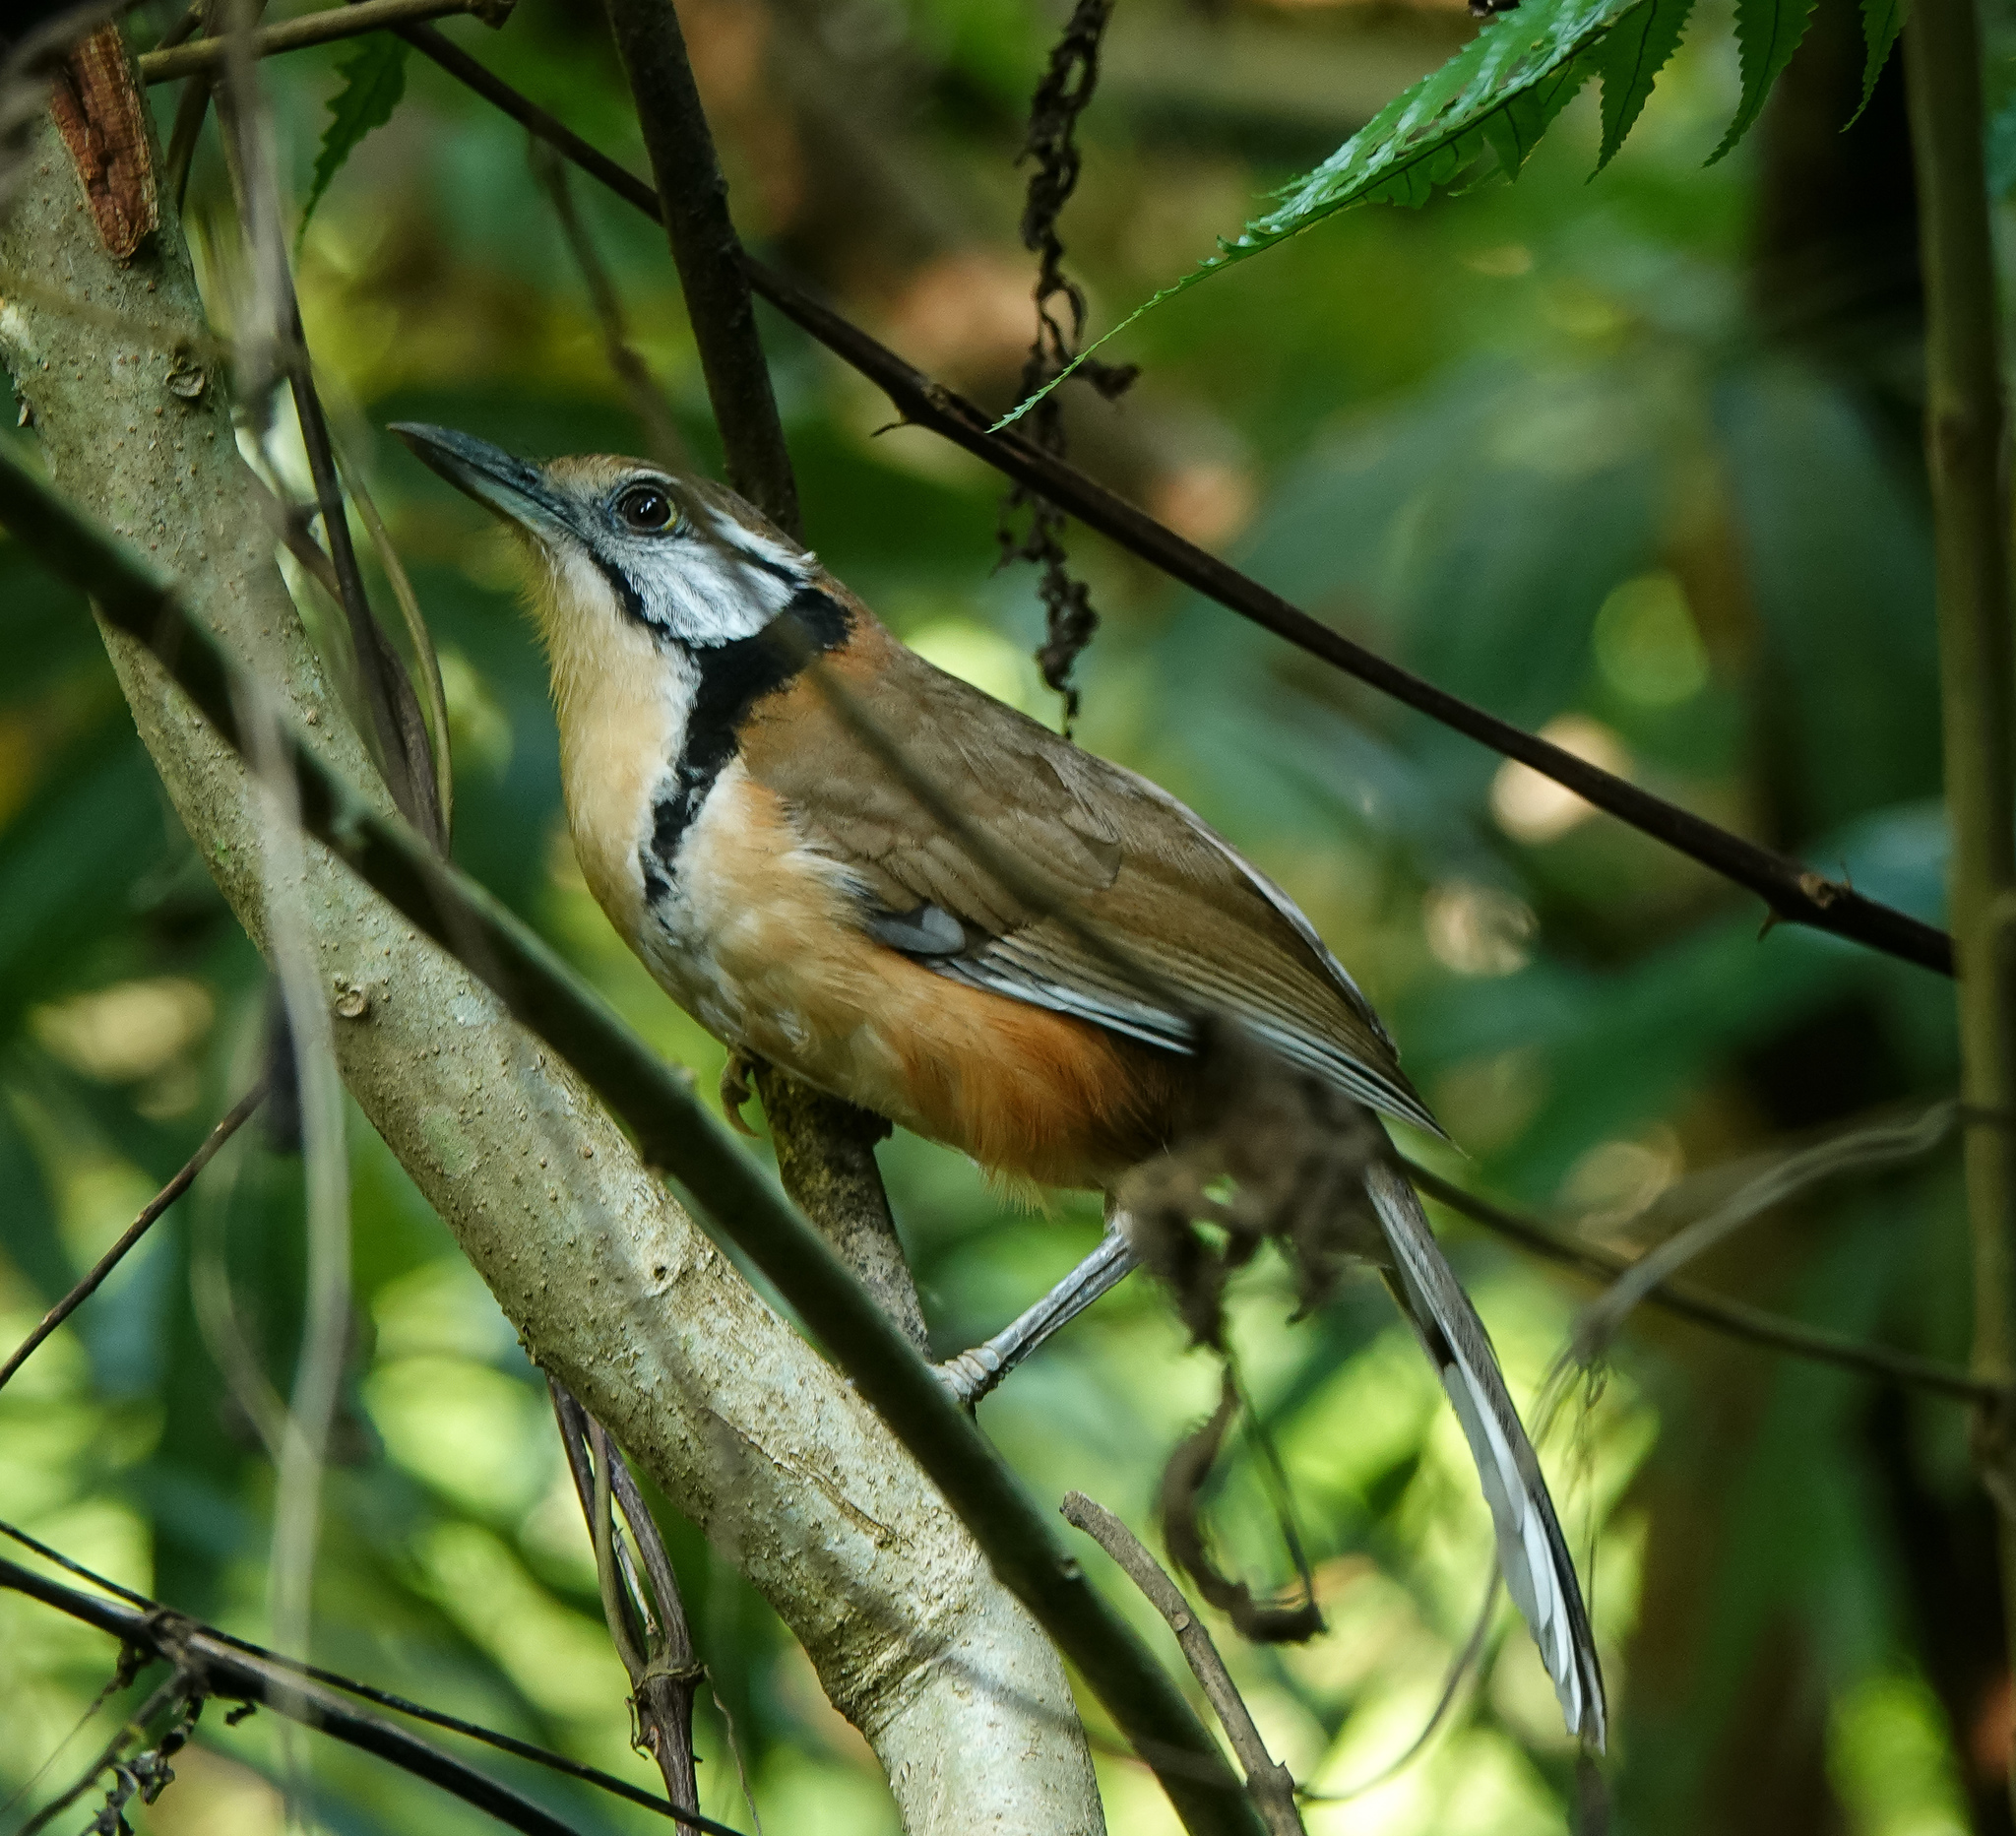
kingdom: Animalia
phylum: Chordata
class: Aves
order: Passeriformes
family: Leiothrichidae
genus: Garrulax
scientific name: Garrulax pectoralis
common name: Greater necklaced laughingthrush
